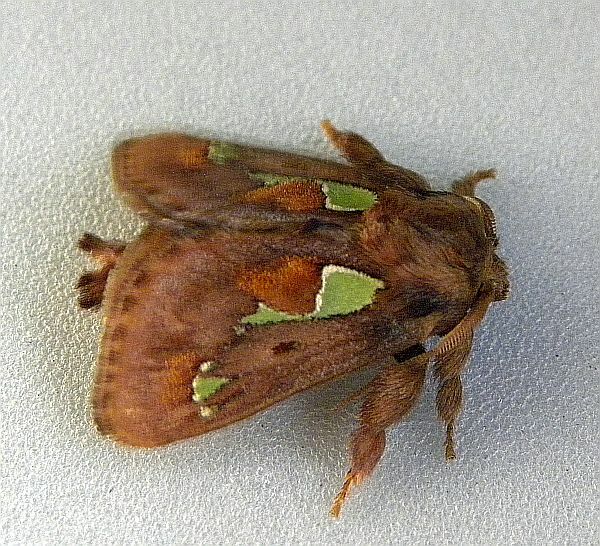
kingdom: Animalia
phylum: Arthropoda
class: Insecta
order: Lepidoptera
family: Limacodidae
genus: Euclea
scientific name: Euclea delphinii
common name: Spiny oak-slug moth
